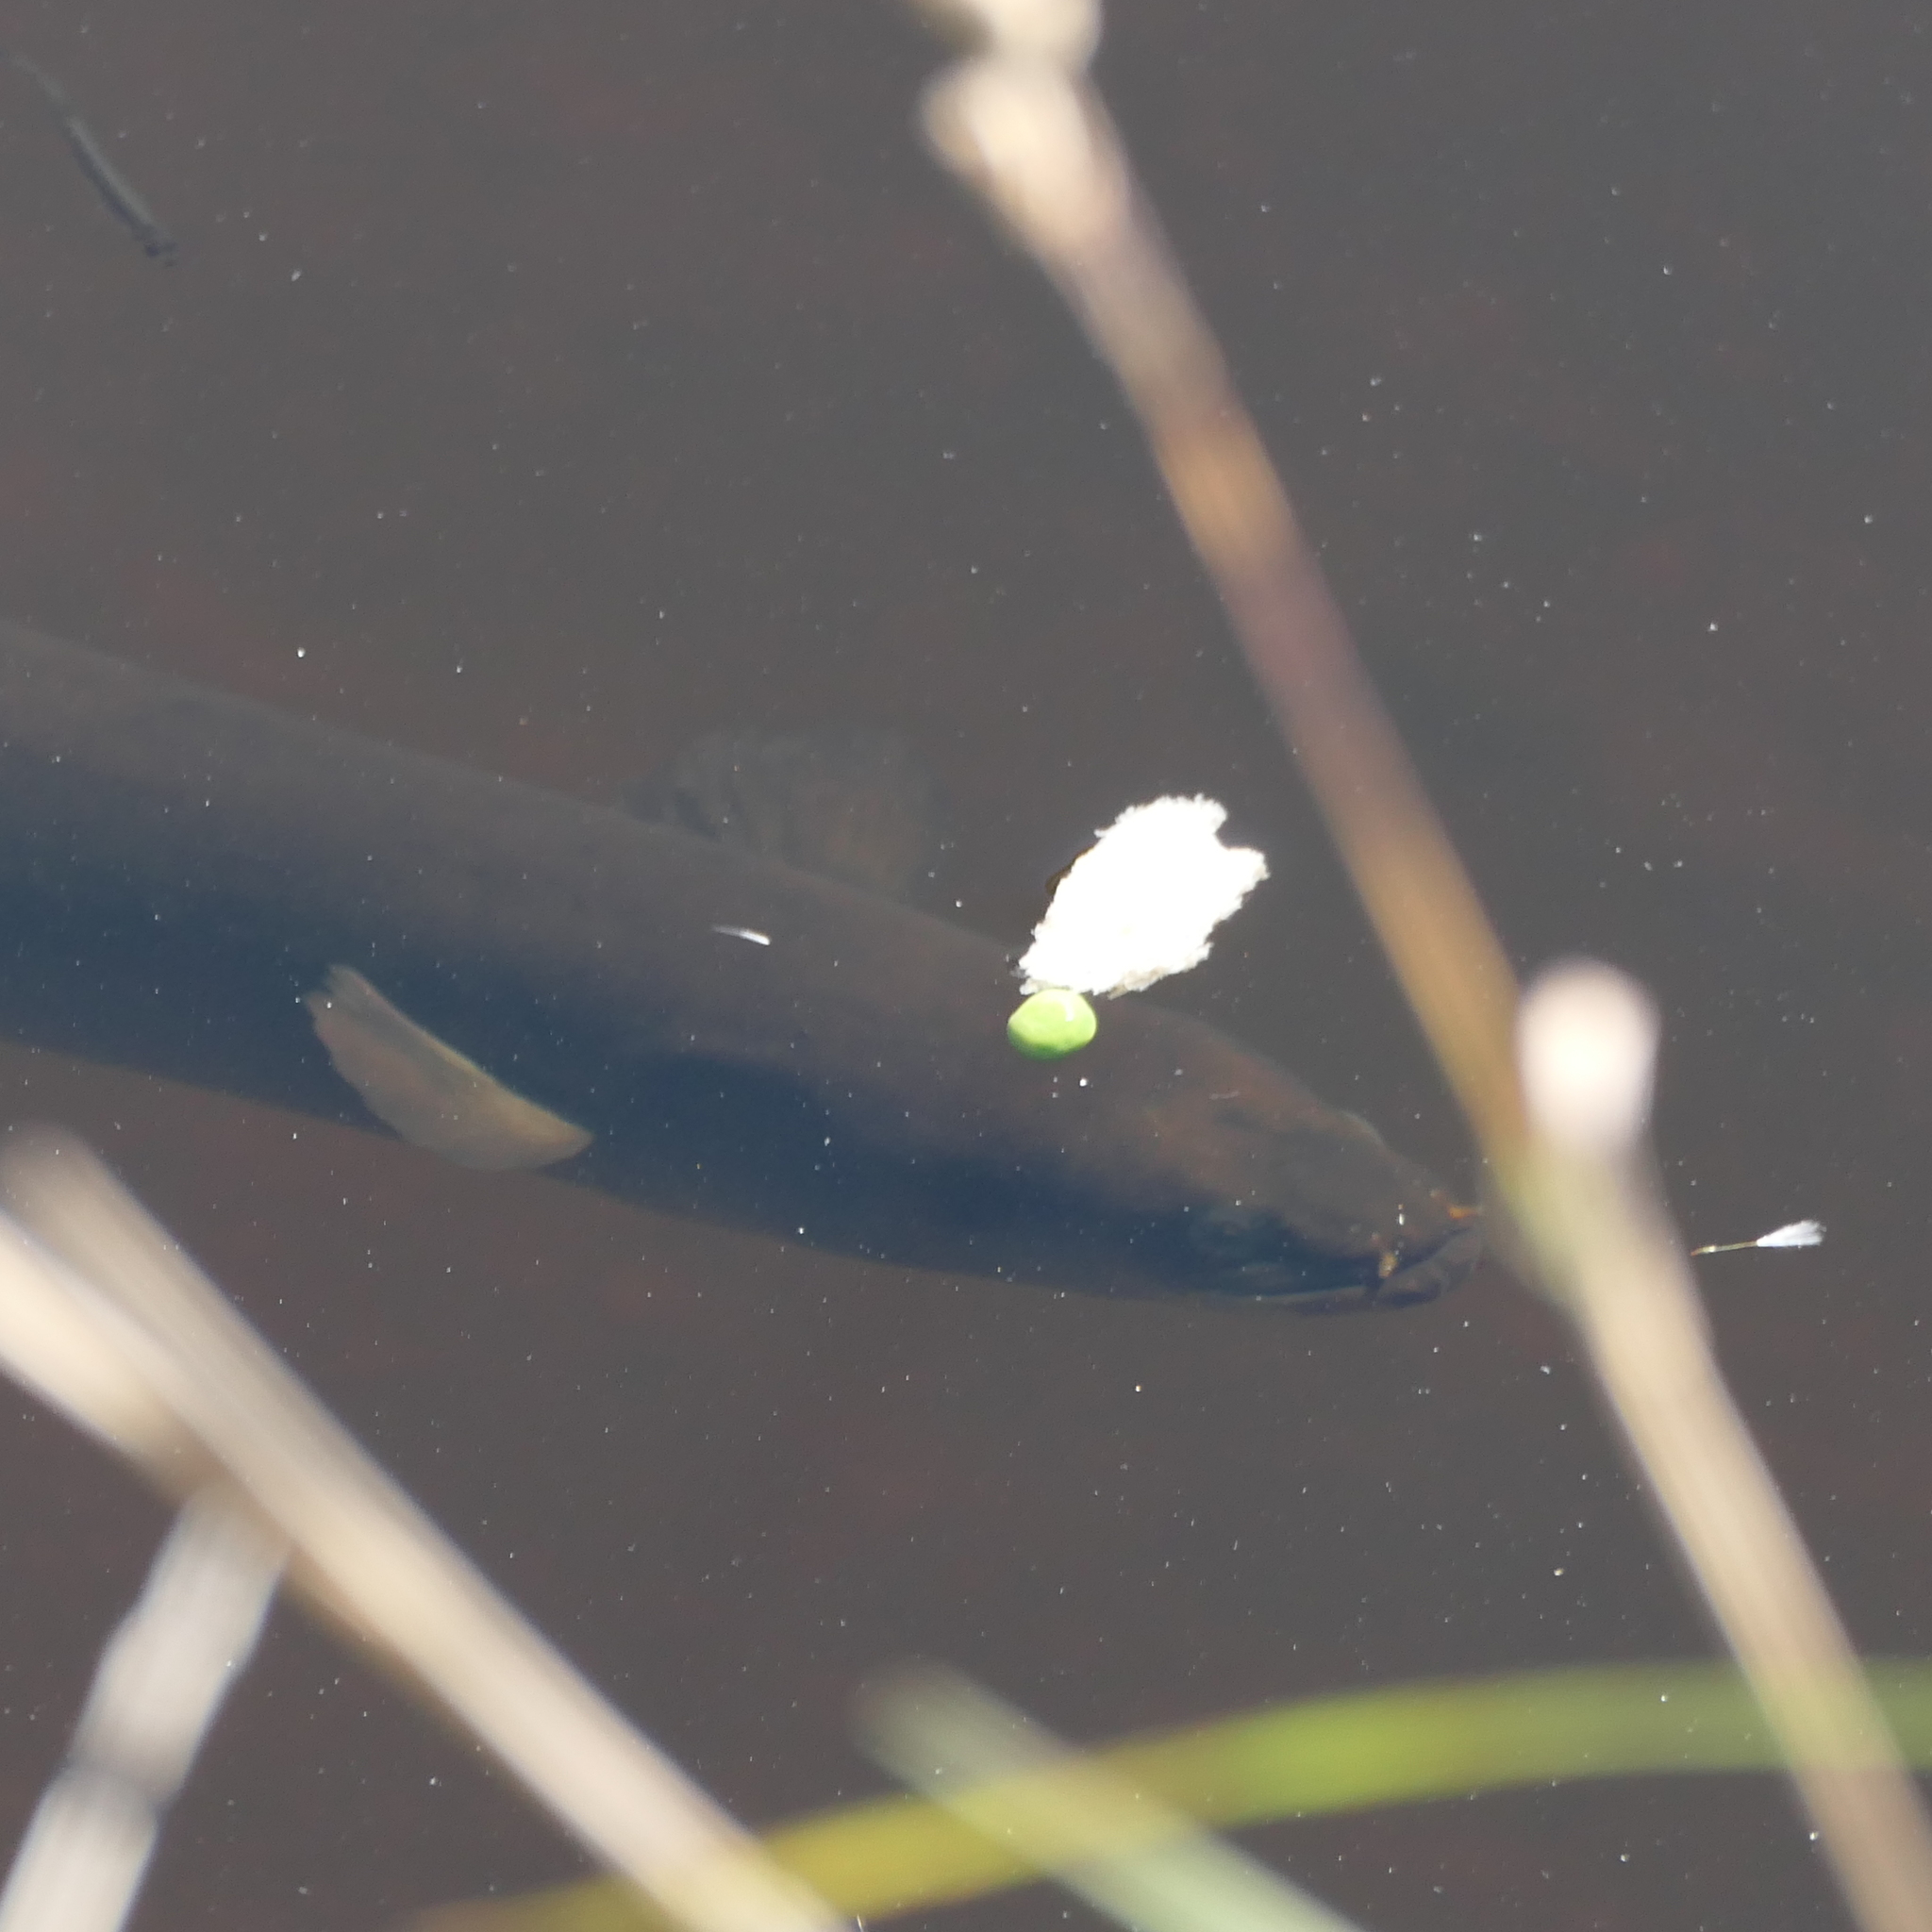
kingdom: Animalia
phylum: Chordata
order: Anguilliformes
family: Anguillidae
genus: Anguilla
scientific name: Anguilla australis
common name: Shortfin eel
